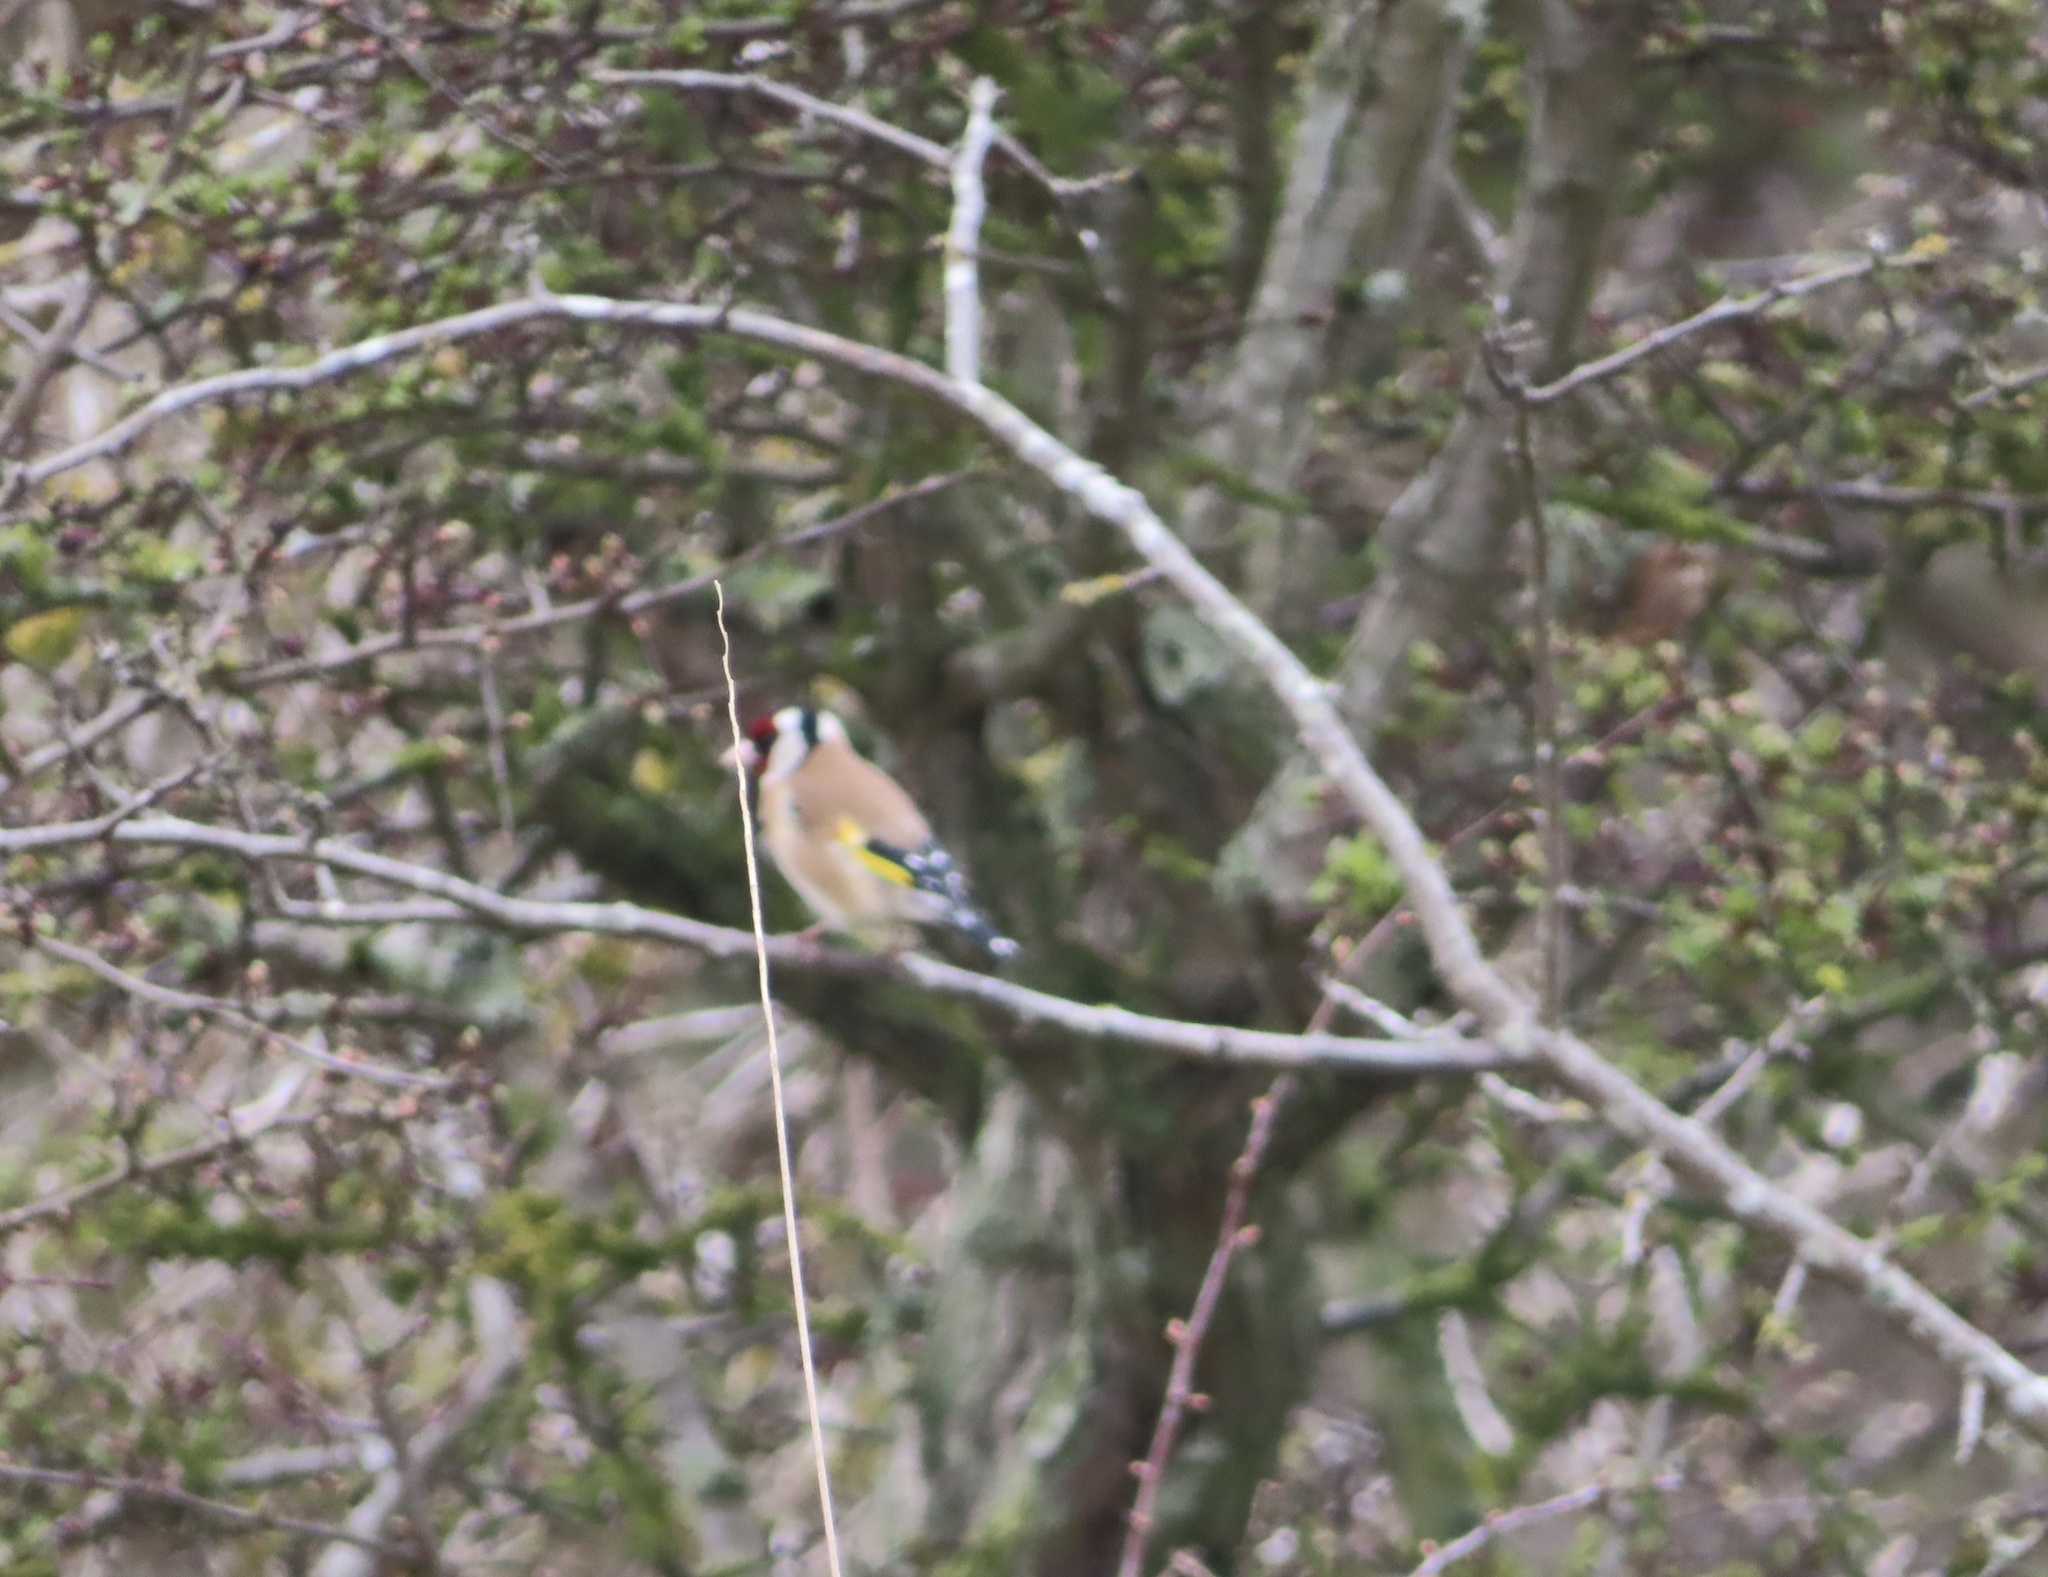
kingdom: Animalia
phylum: Chordata
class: Aves
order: Passeriformes
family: Fringillidae
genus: Carduelis
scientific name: Carduelis carduelis
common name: European goldfinch
